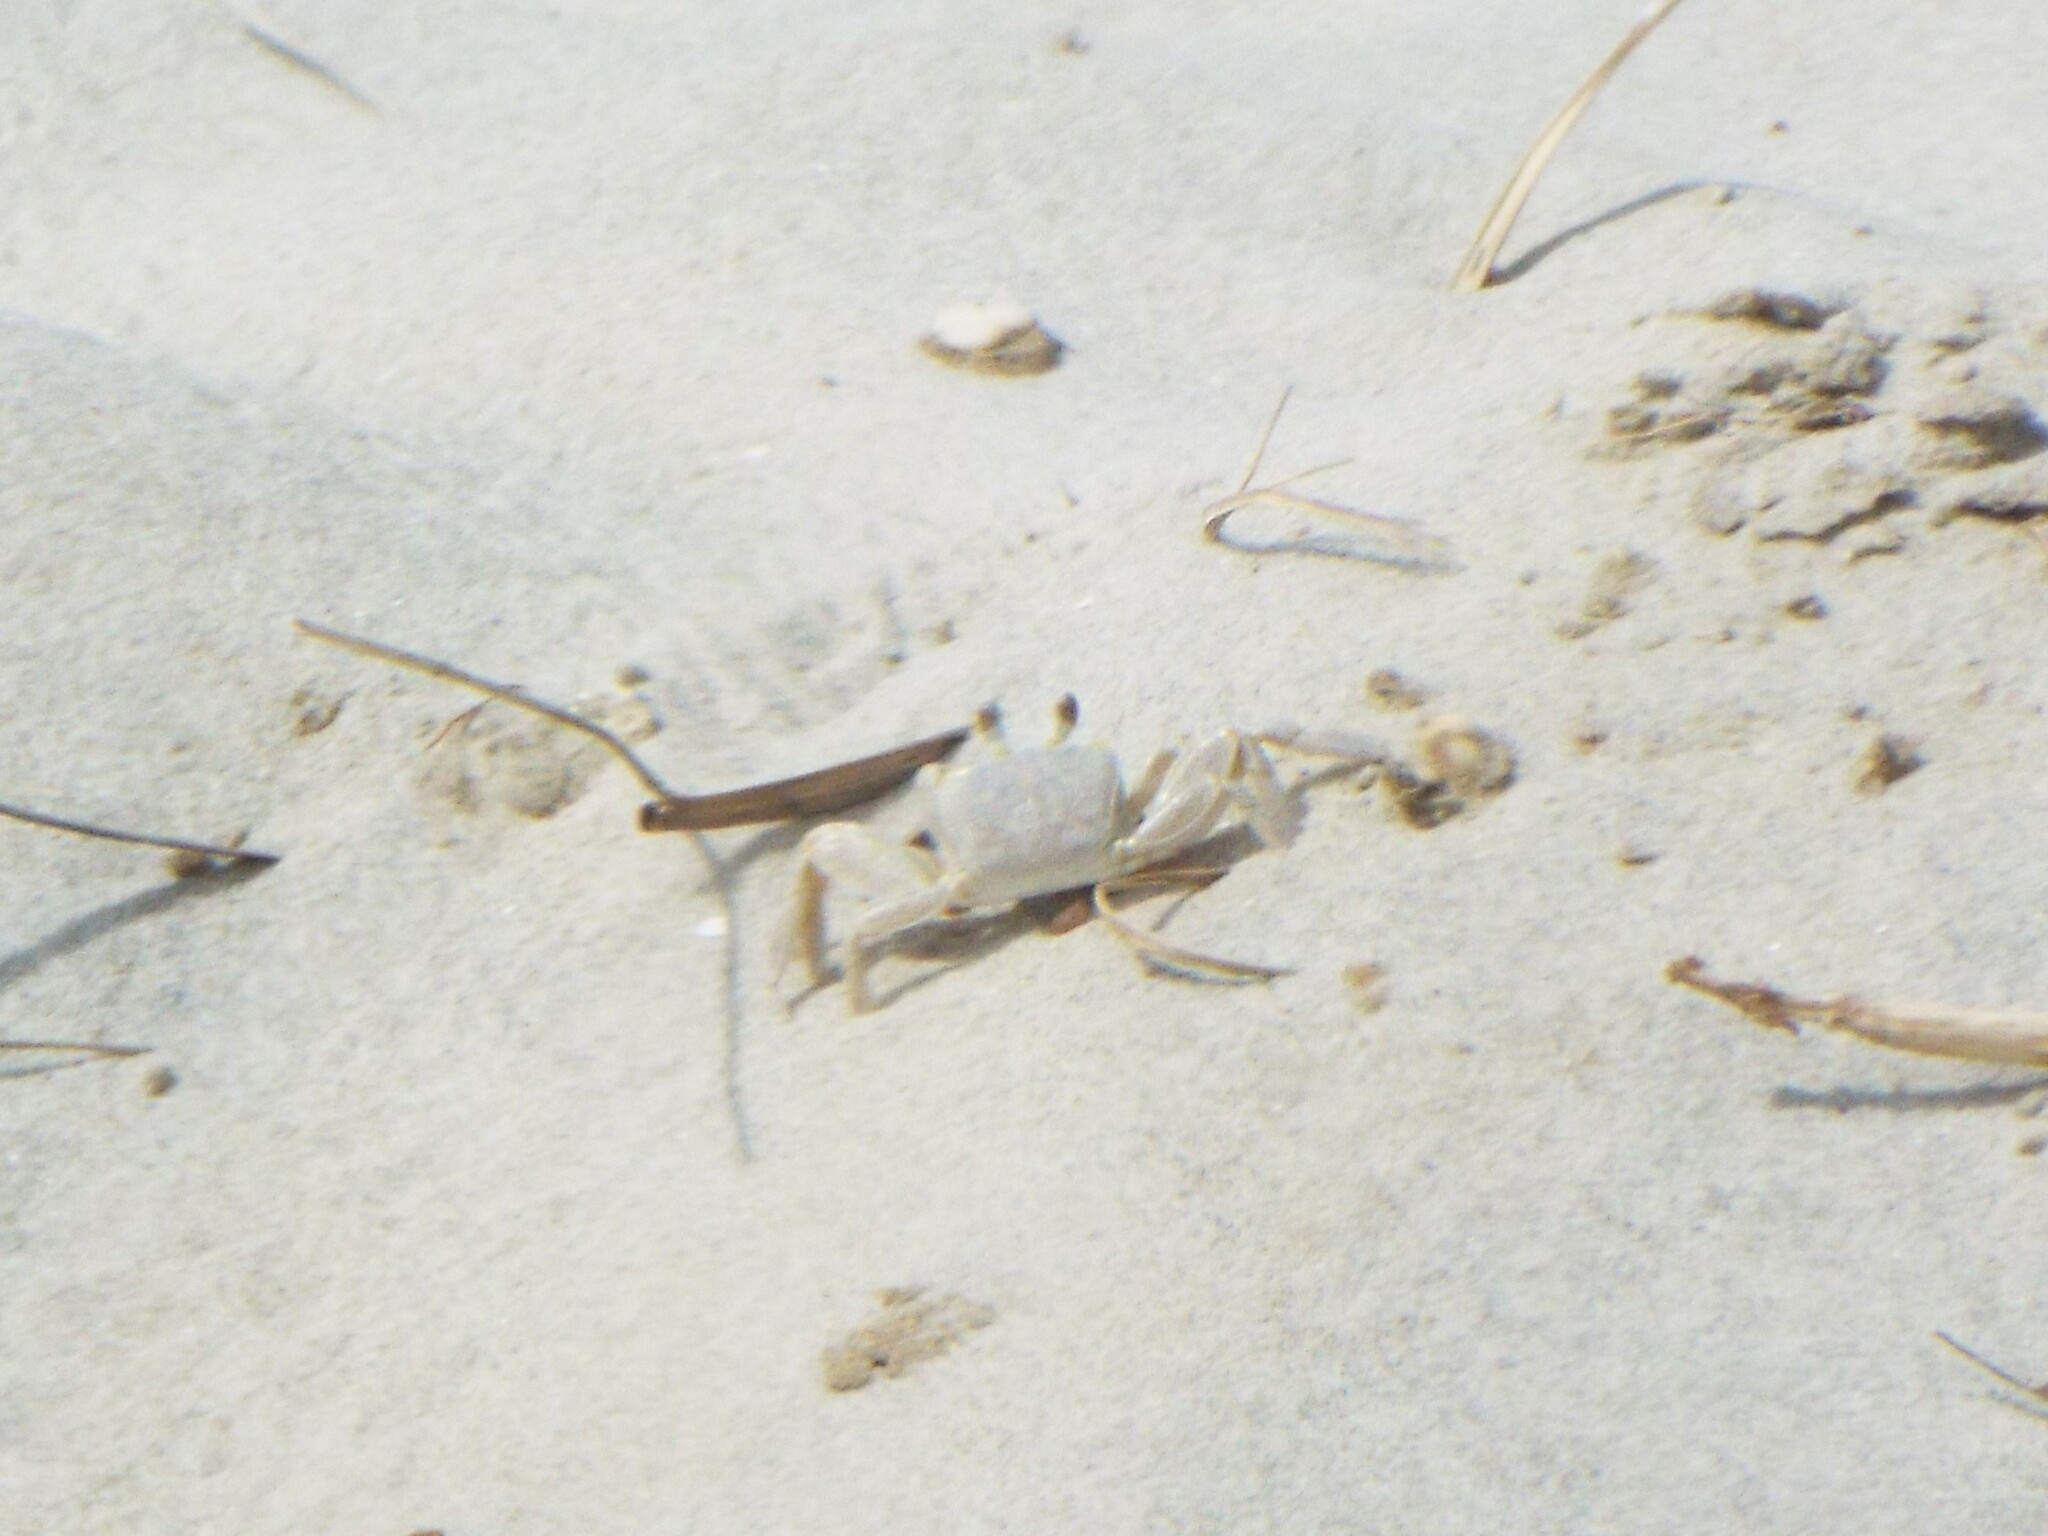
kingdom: Animalia
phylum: Arthropoda
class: Malacostraca
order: Decapoda
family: Ocypodidae
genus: Ocypode
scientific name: Ocypode quadrata
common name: Ghost crab
